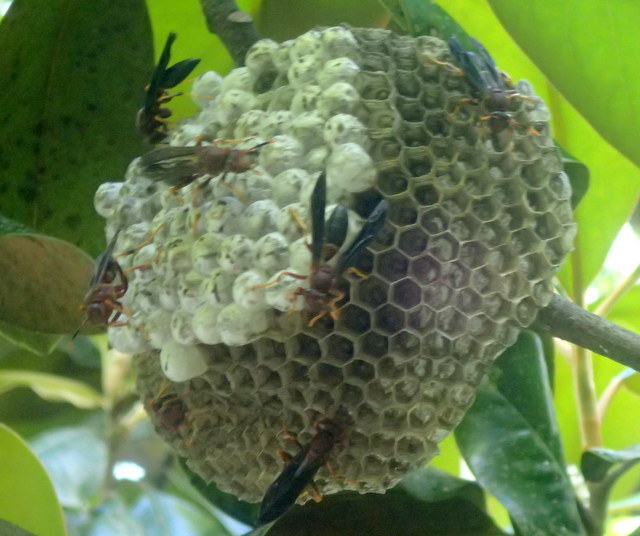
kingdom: Animalia
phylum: Arthropoda
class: Insecta
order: Hymenoptera
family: Eumenidae
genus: Polistes
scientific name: Polistes annularis
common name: Ringed paper wasp
